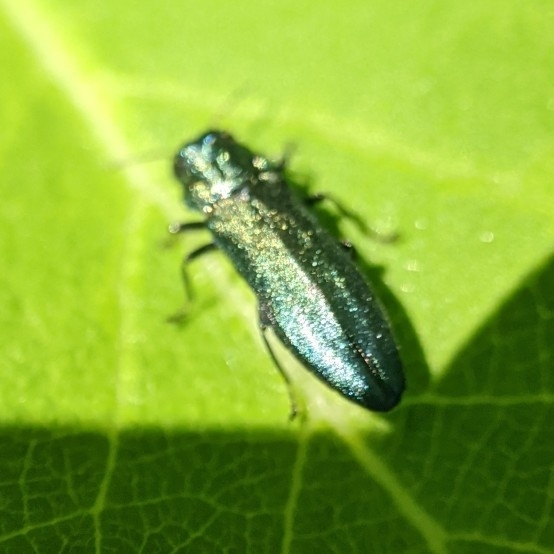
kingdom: Animalia
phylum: Arthropoda
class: Insecta
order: Coleoptera
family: Buprestidae
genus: Agrilus
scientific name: Agrilus cyanescens
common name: Bluish borer beetle
